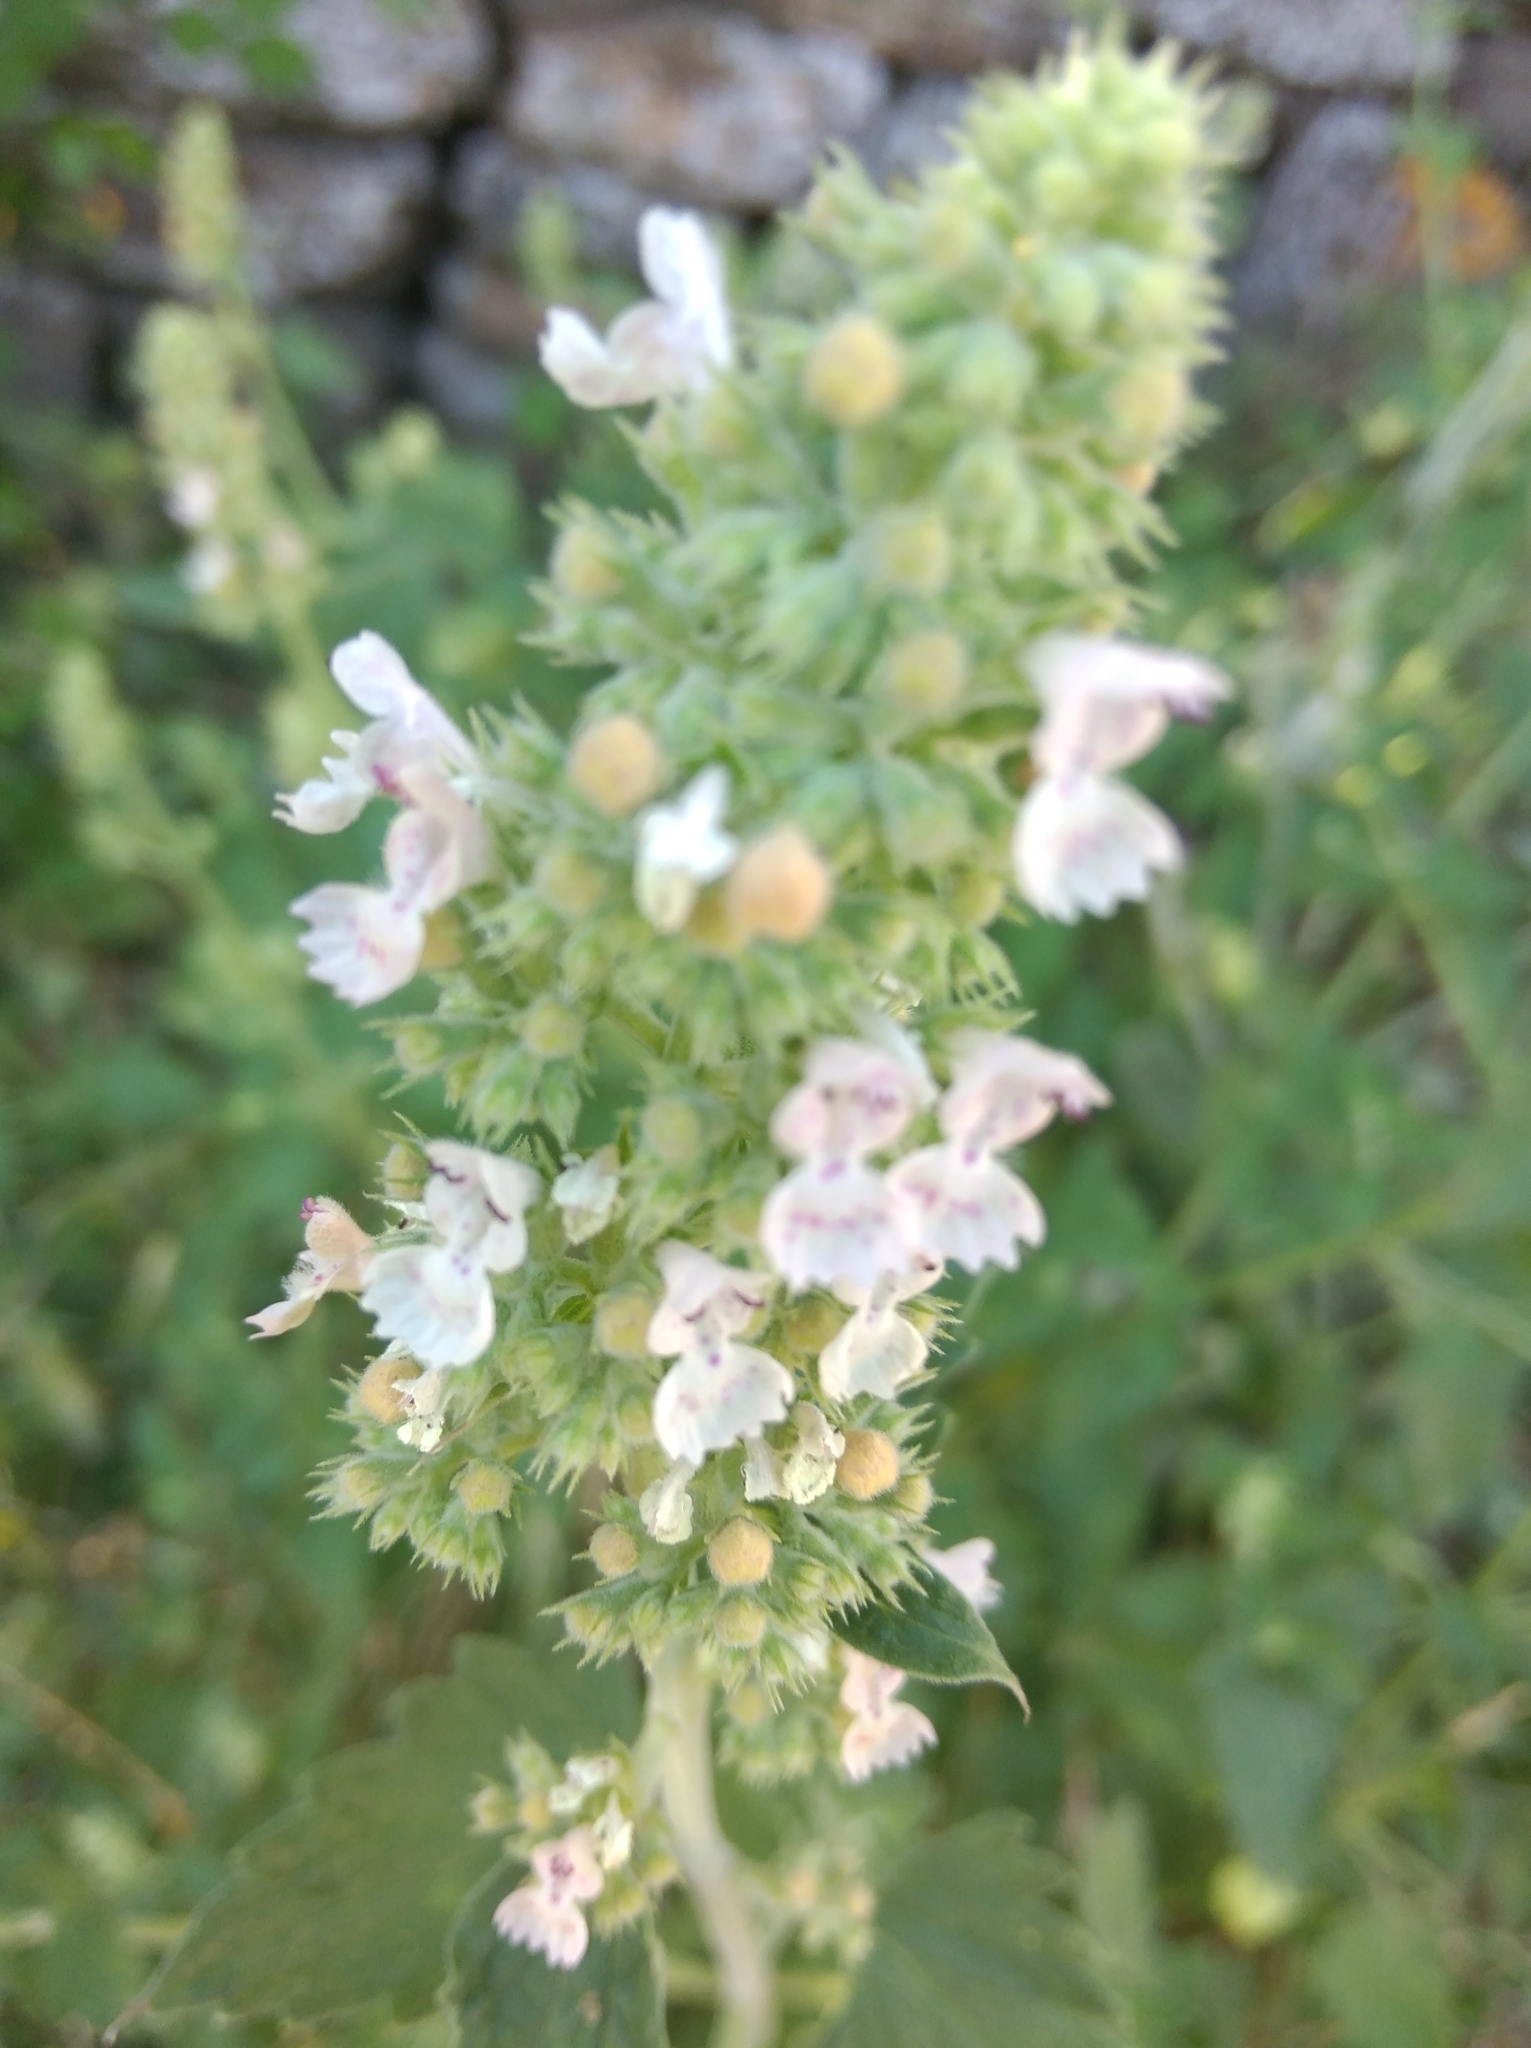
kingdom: Plantae
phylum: Tracheophyta
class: Magnoliopsida
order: Lamiales
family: Lamiaceae
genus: Nepeta
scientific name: Nepeta cataria
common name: Catnip
